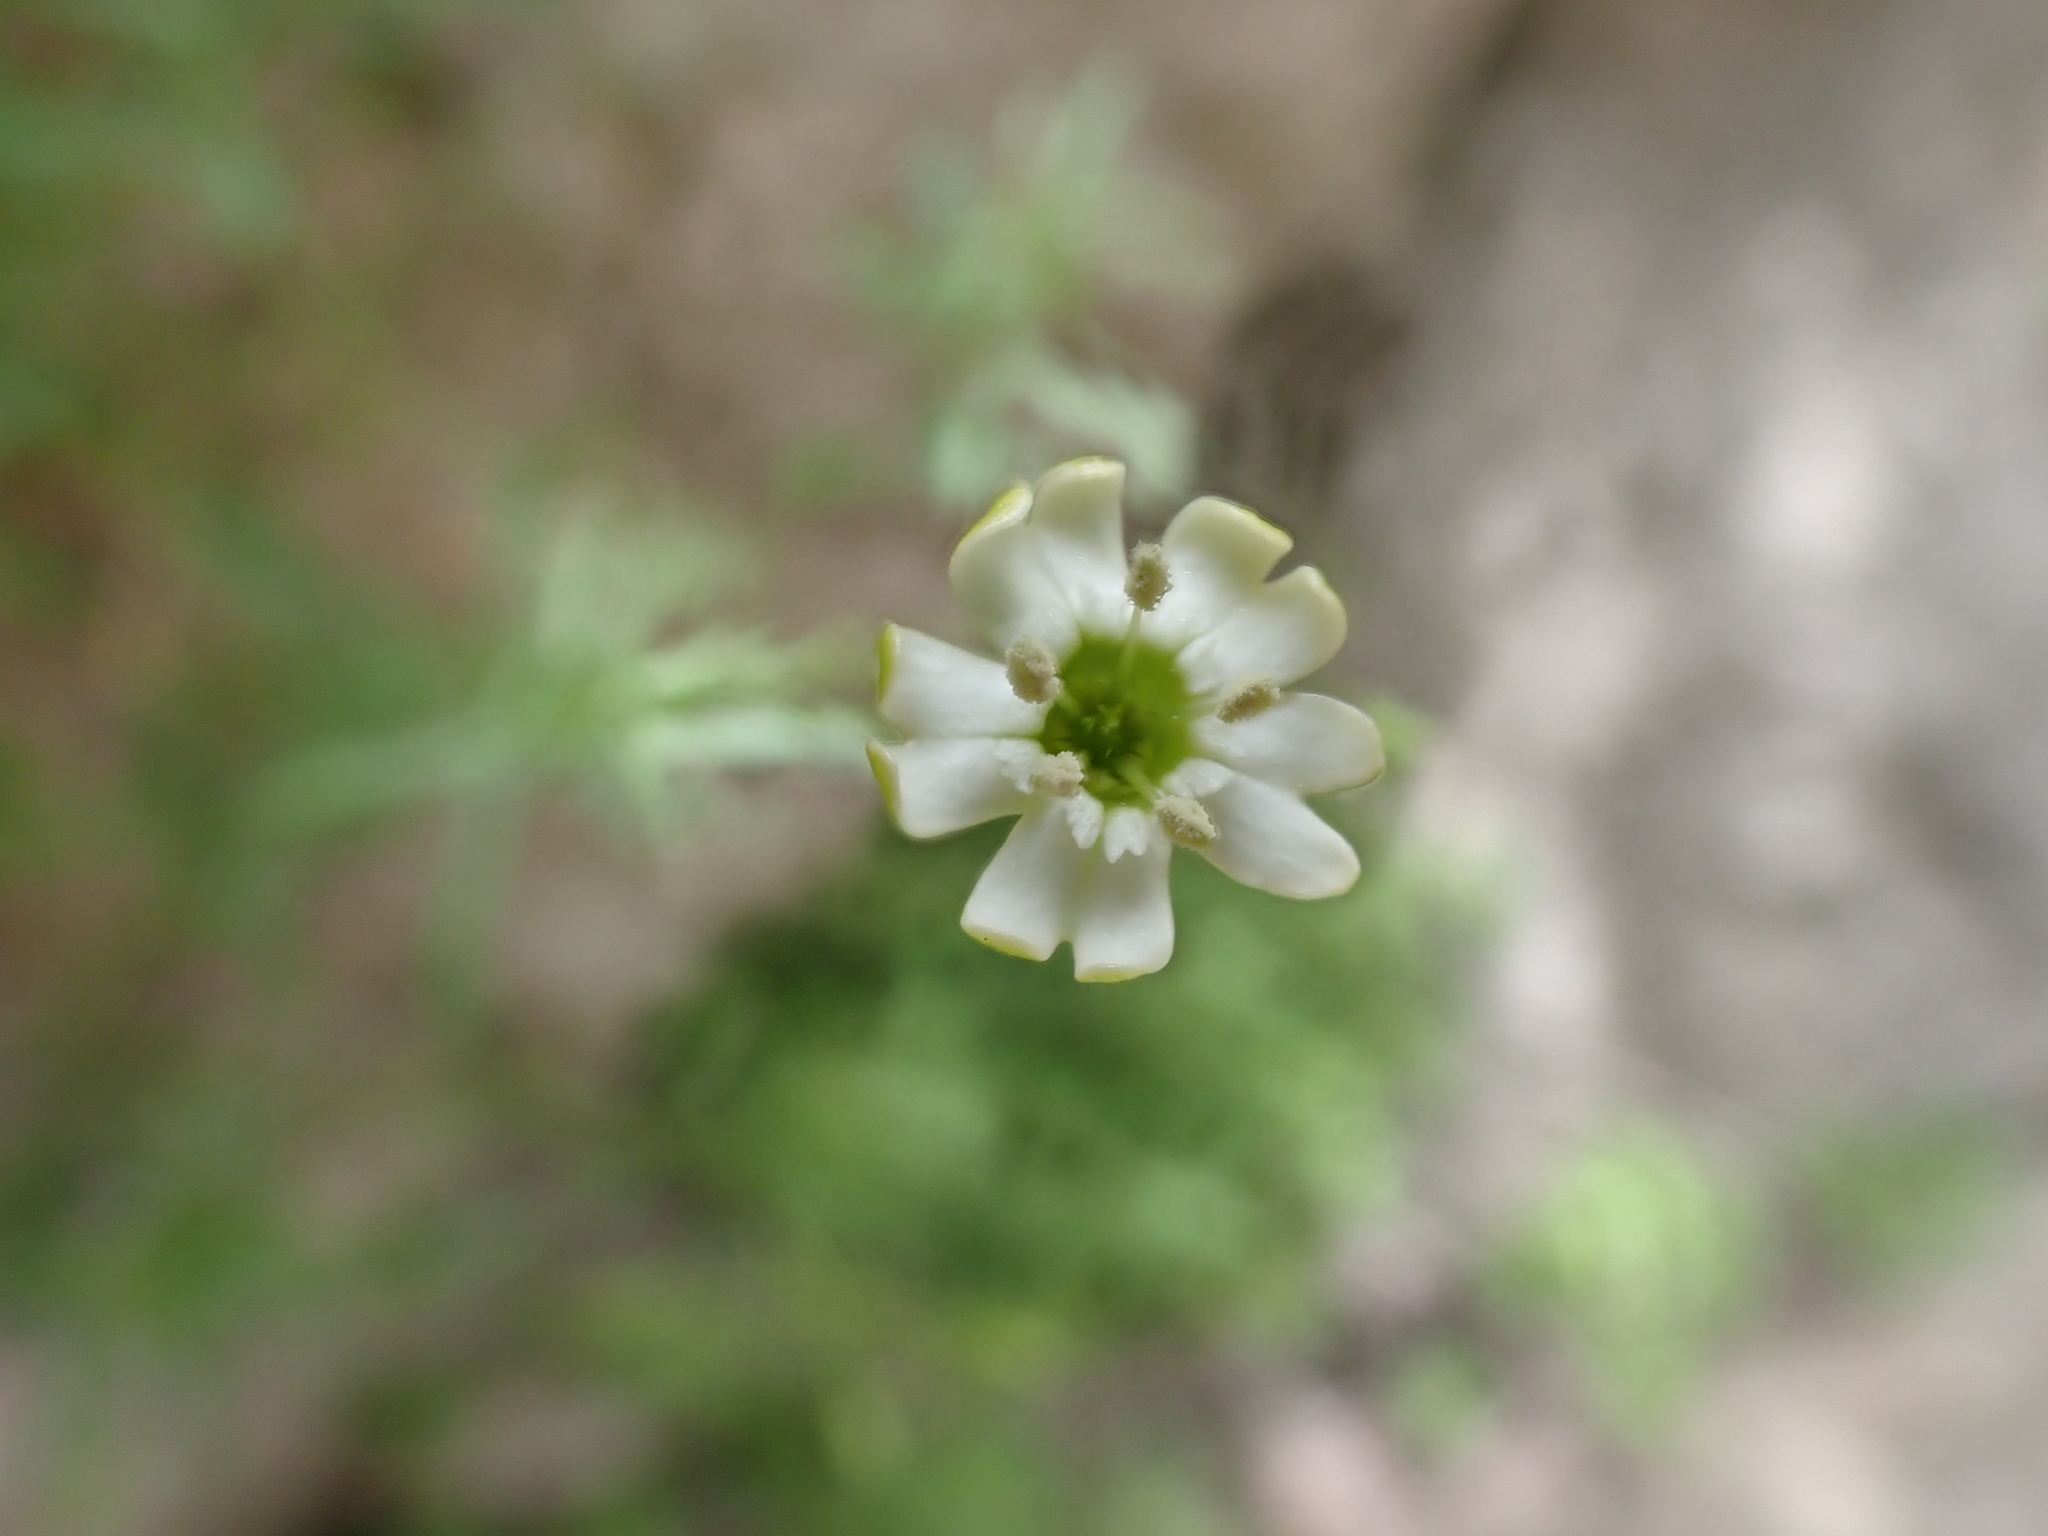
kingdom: Plantae
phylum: Tracheophyta
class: Magnoliopsida
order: Caryophyllales
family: Caryophyllaceae
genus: Silene
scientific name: Silene saxifraga
